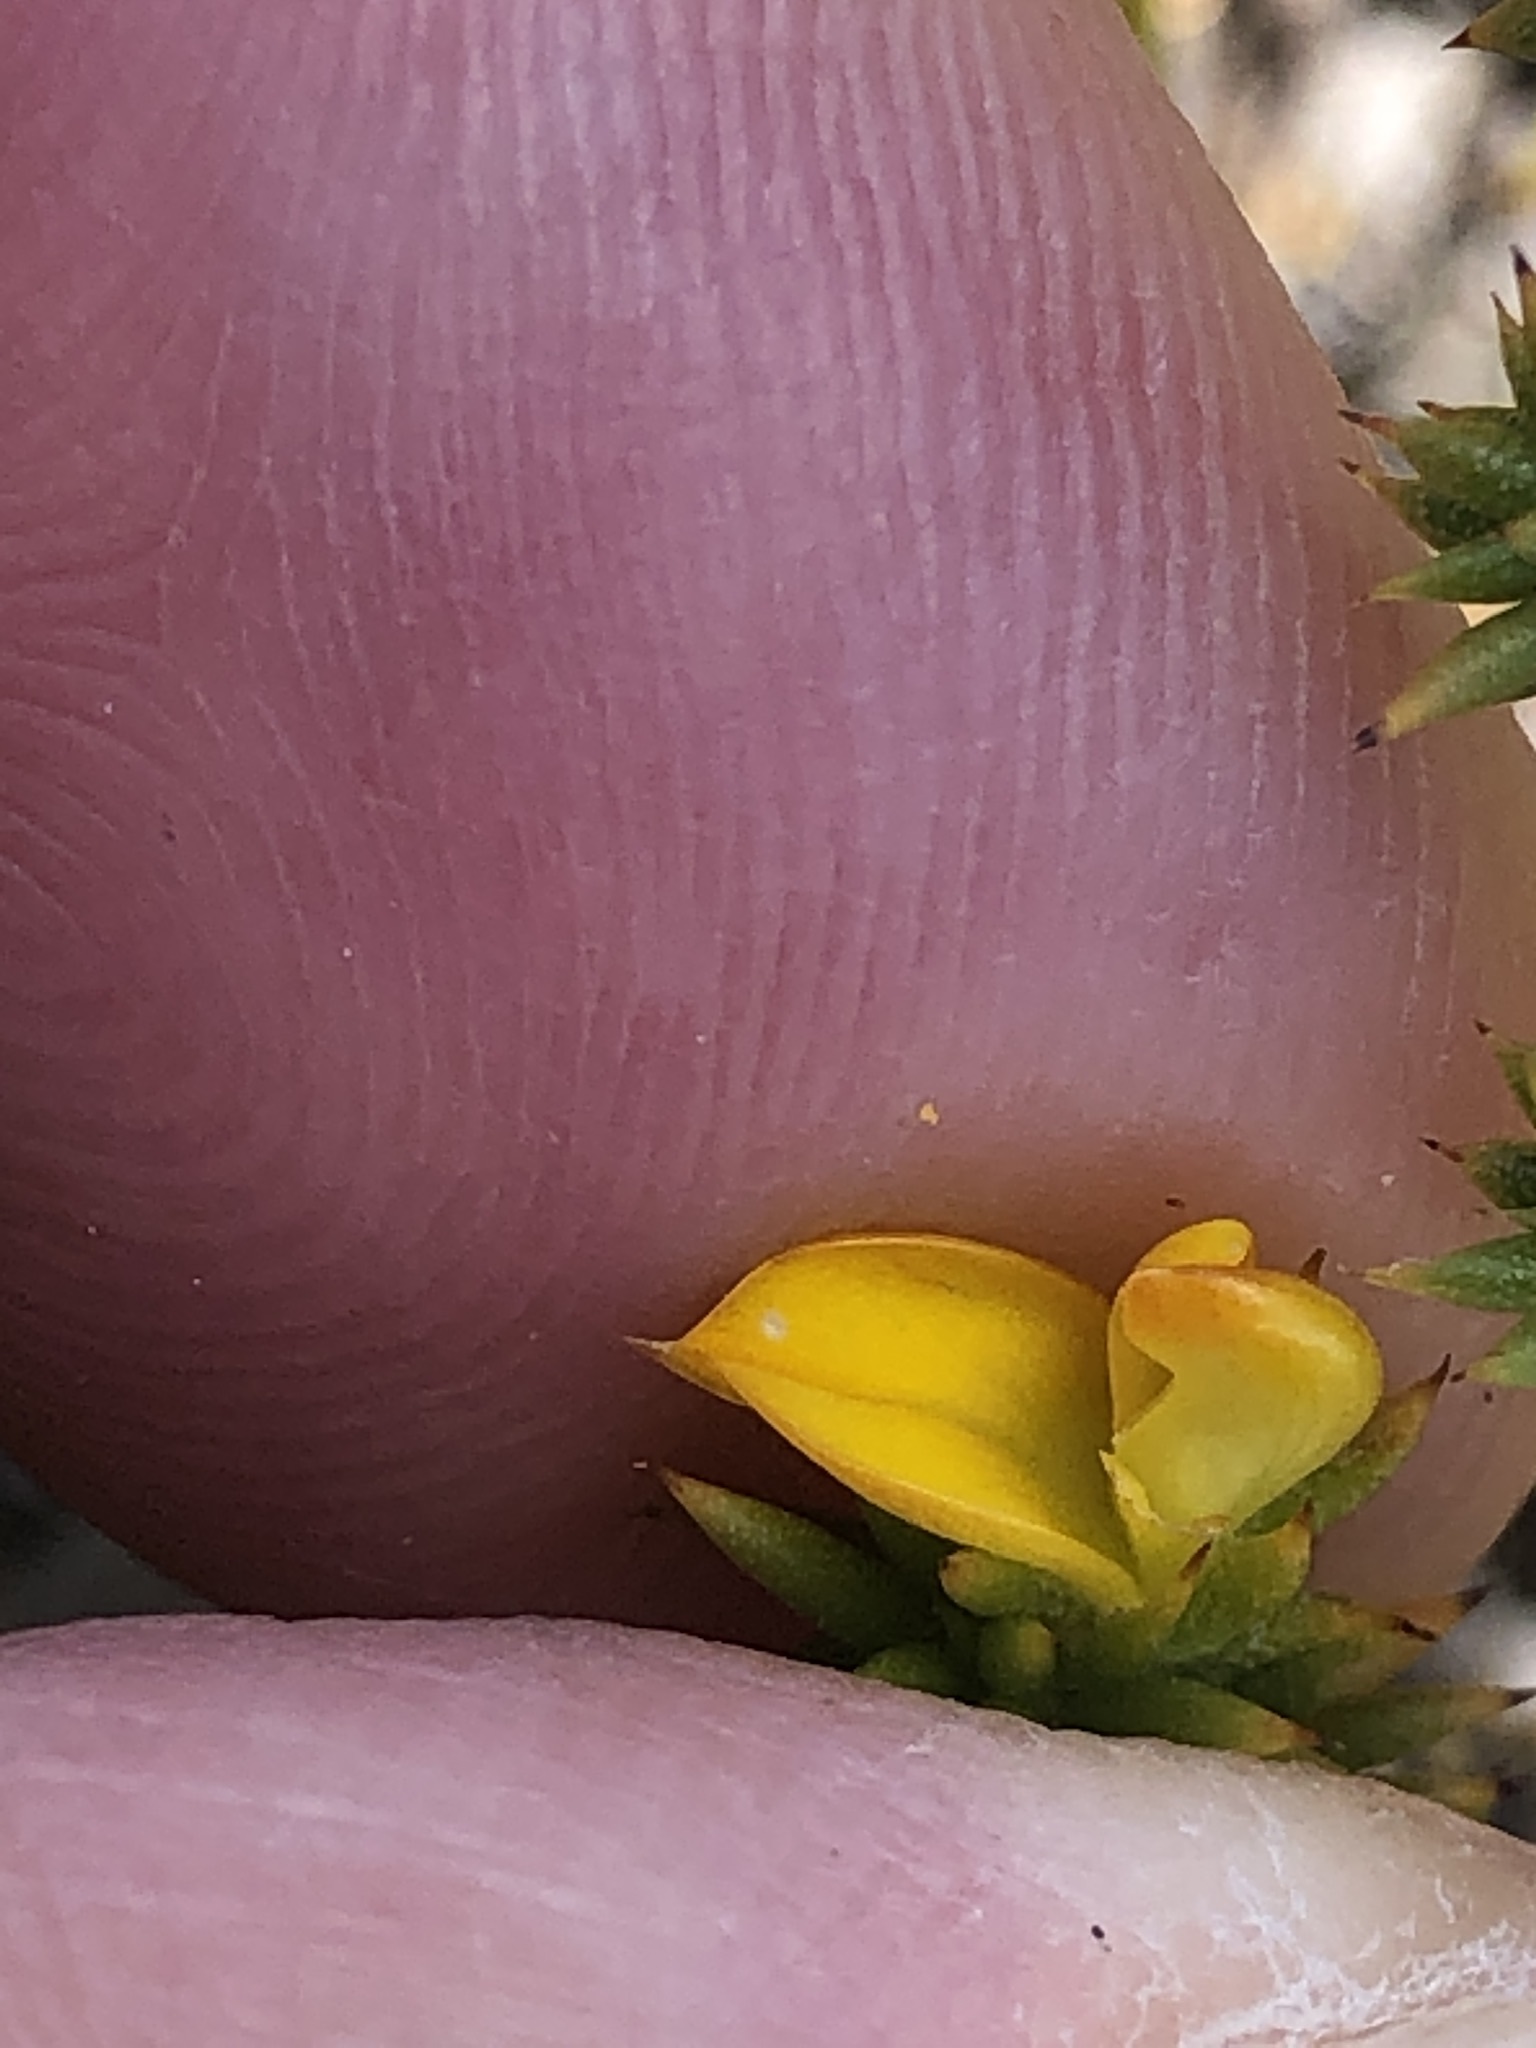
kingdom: Plantae
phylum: Tracheophyta
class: Magnoliopsida
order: Fabales
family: Fabaceae
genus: Aspalathus
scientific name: Aspalathus batodes
